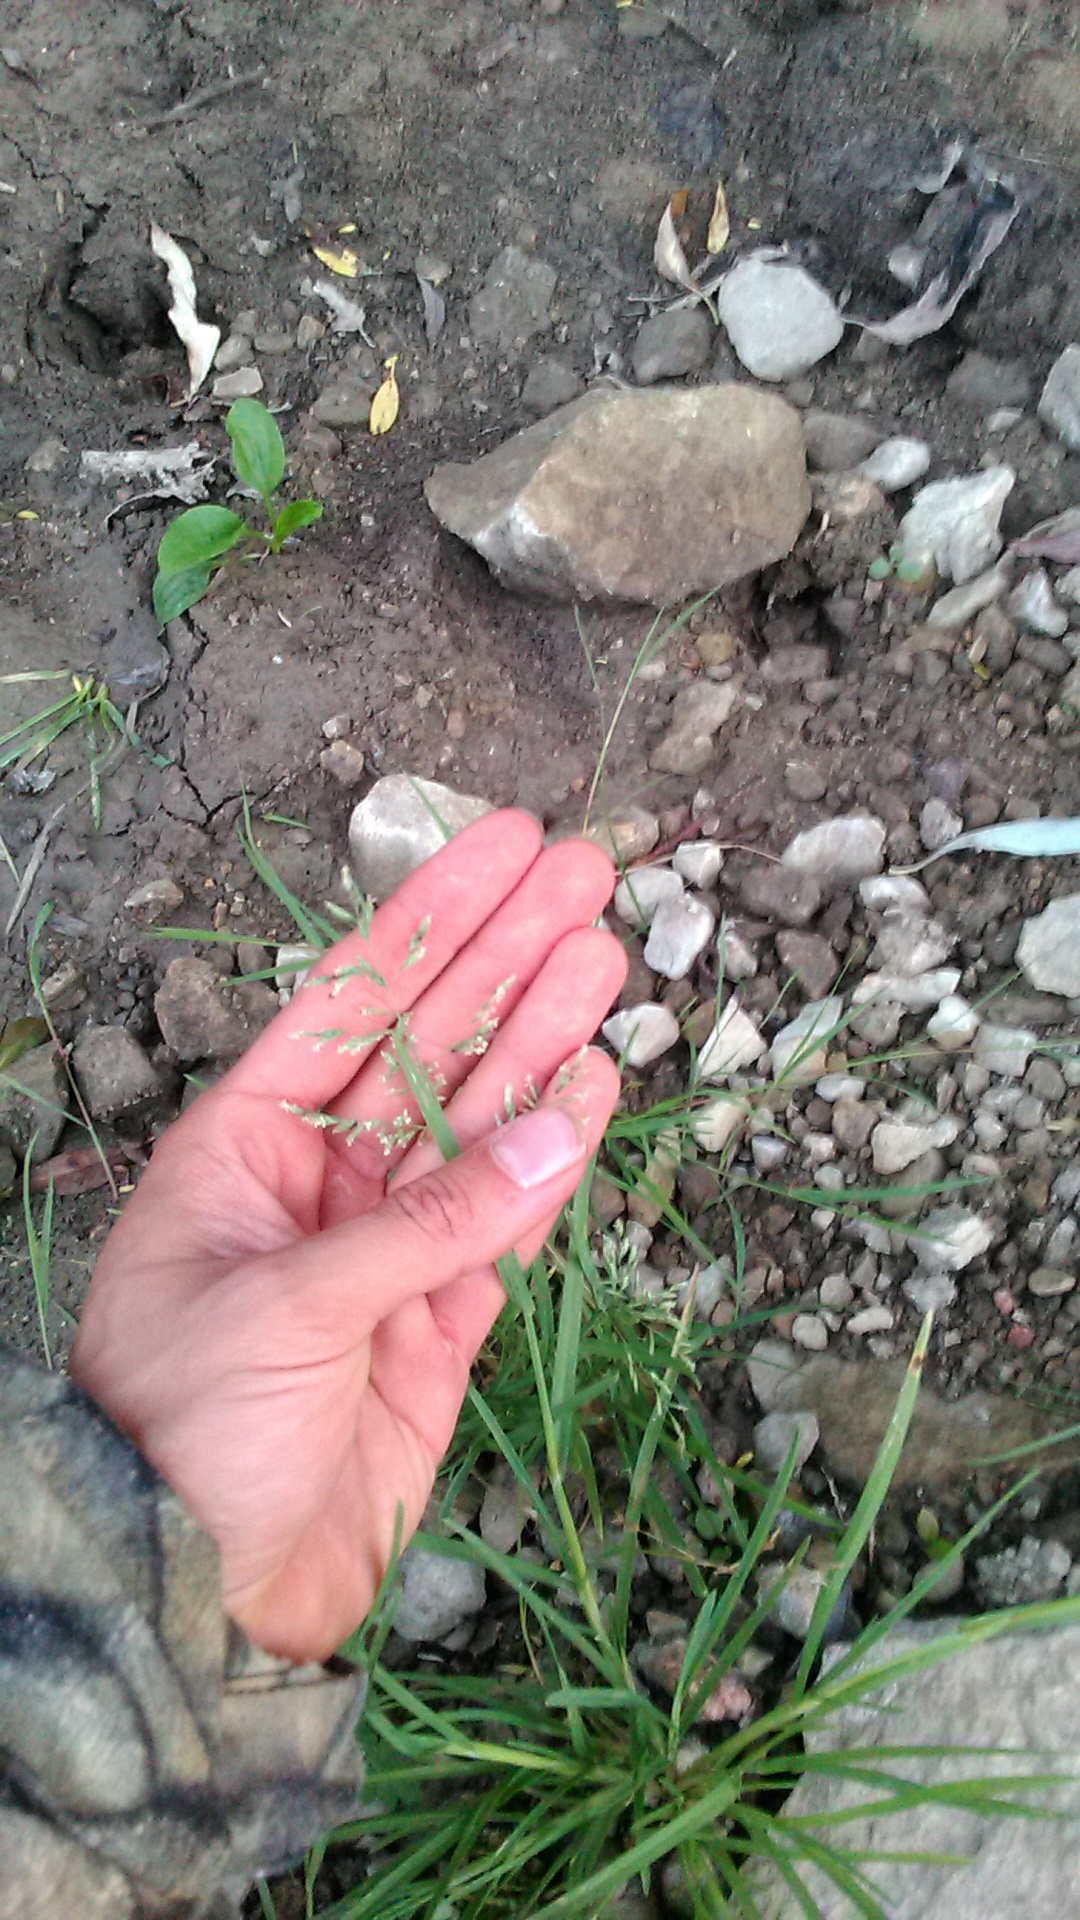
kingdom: Plantae
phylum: Tracheophyta
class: Liliopsida
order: Poales
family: Poaceae
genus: Poa
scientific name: Poa annua
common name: Annual bluegrass
